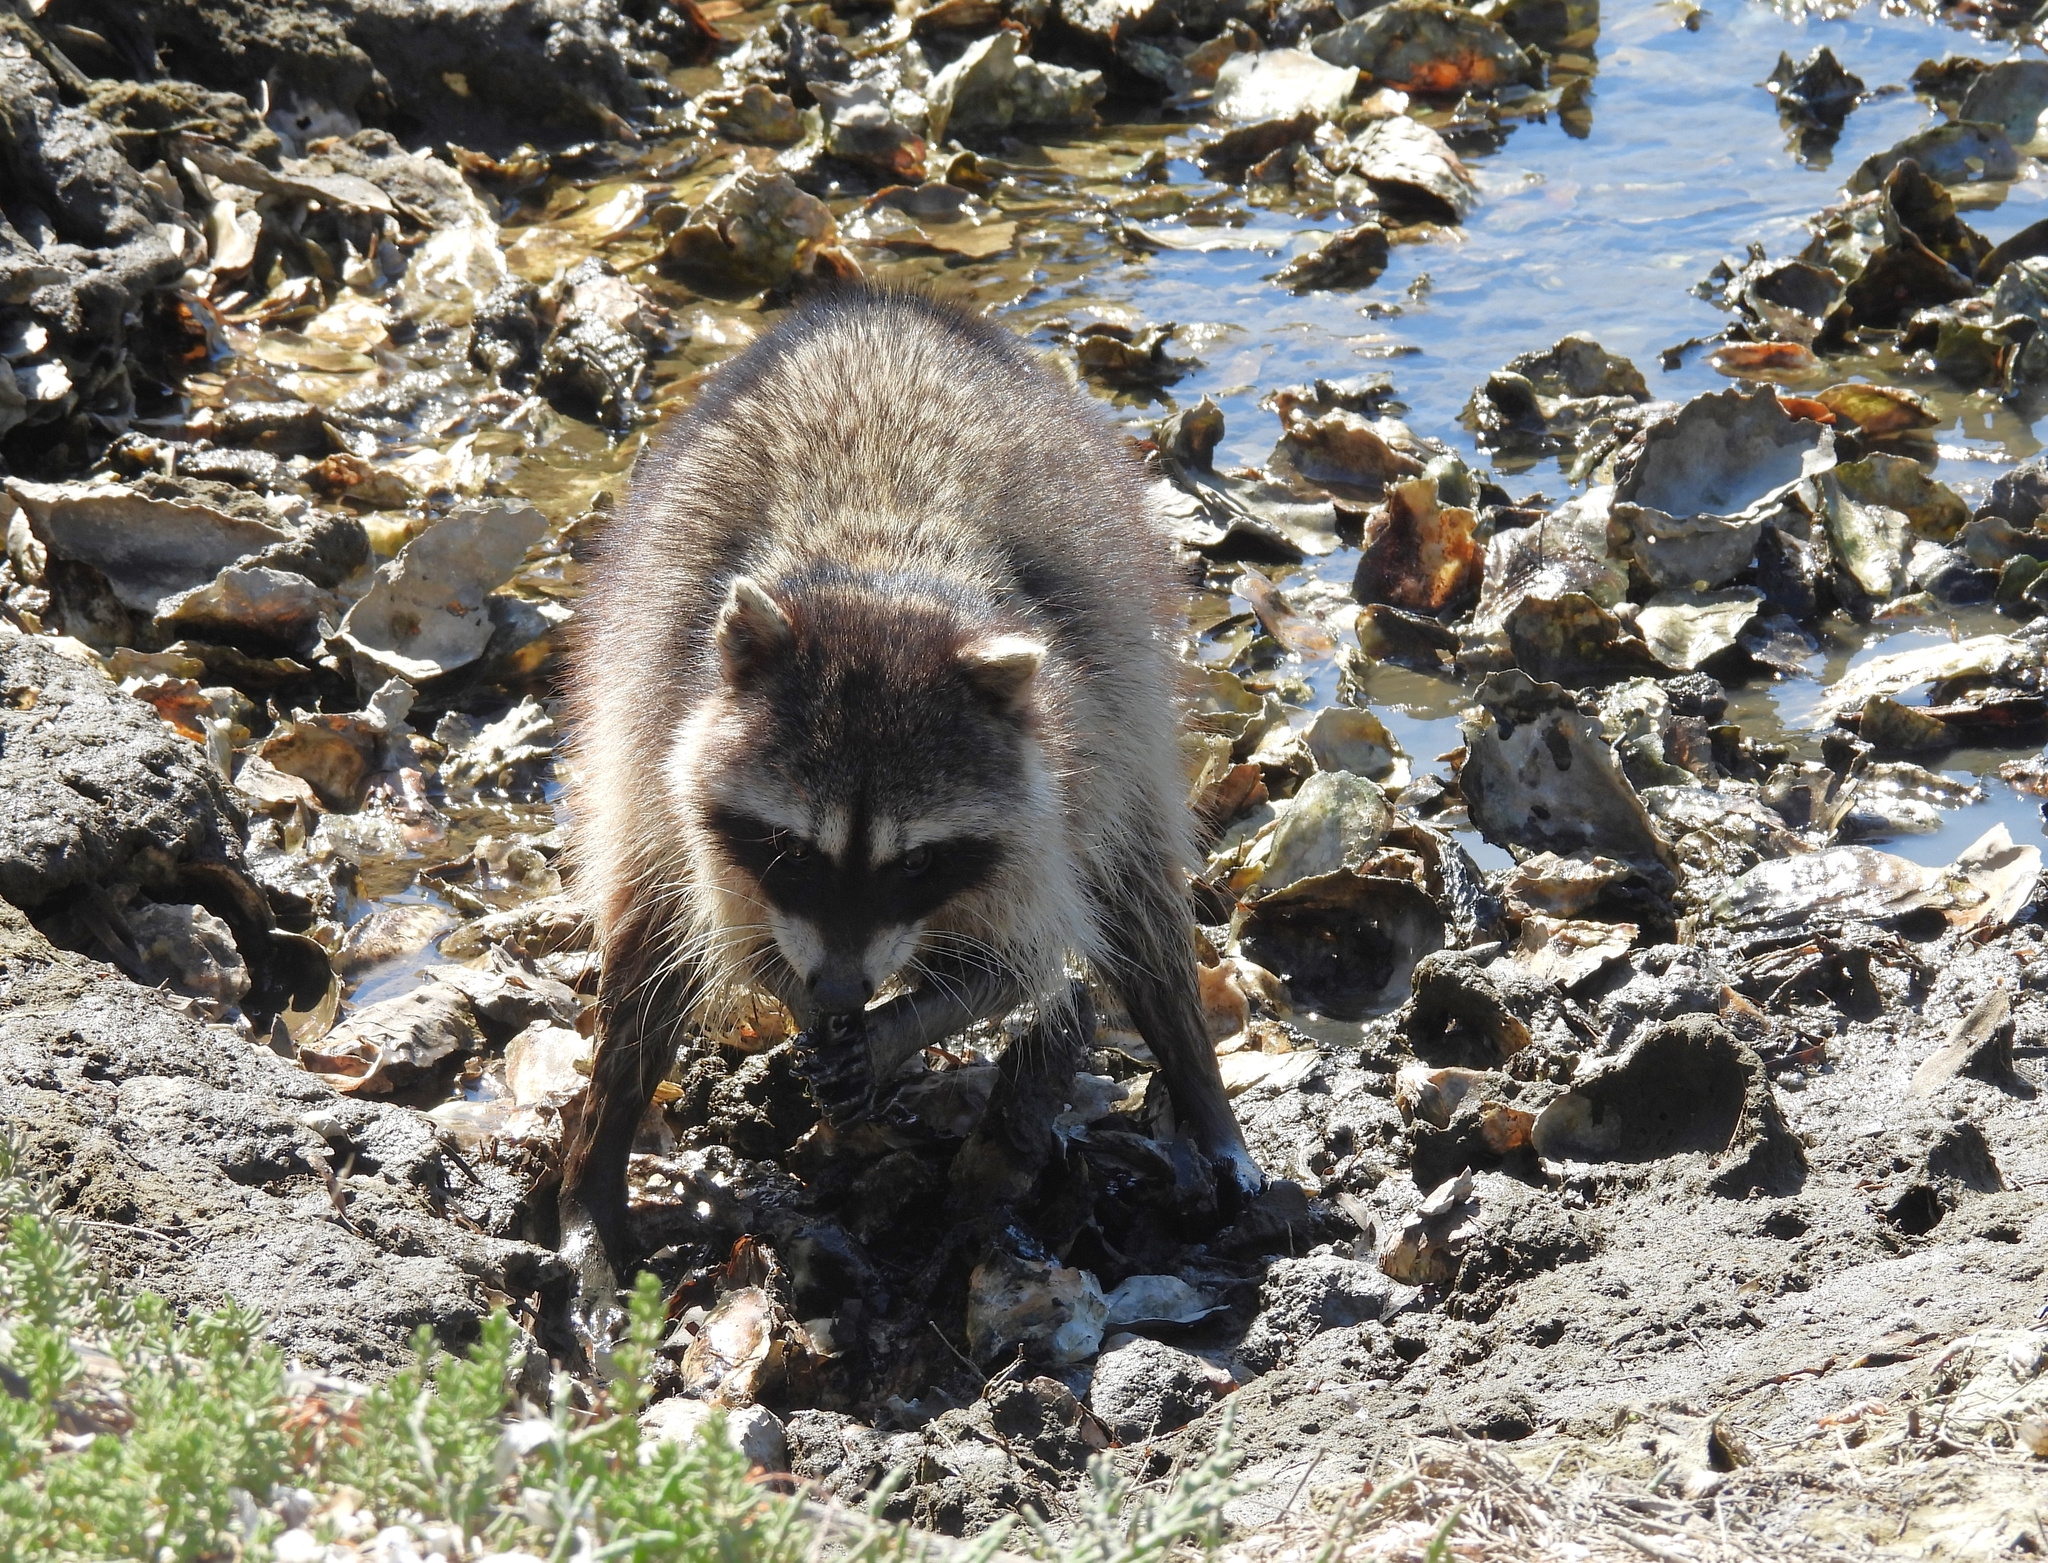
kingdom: Animalia
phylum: Chordata
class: Mammalia
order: Carnivora
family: Procyonidae
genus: Procyon
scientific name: Procyon lotor
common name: Raccoon
